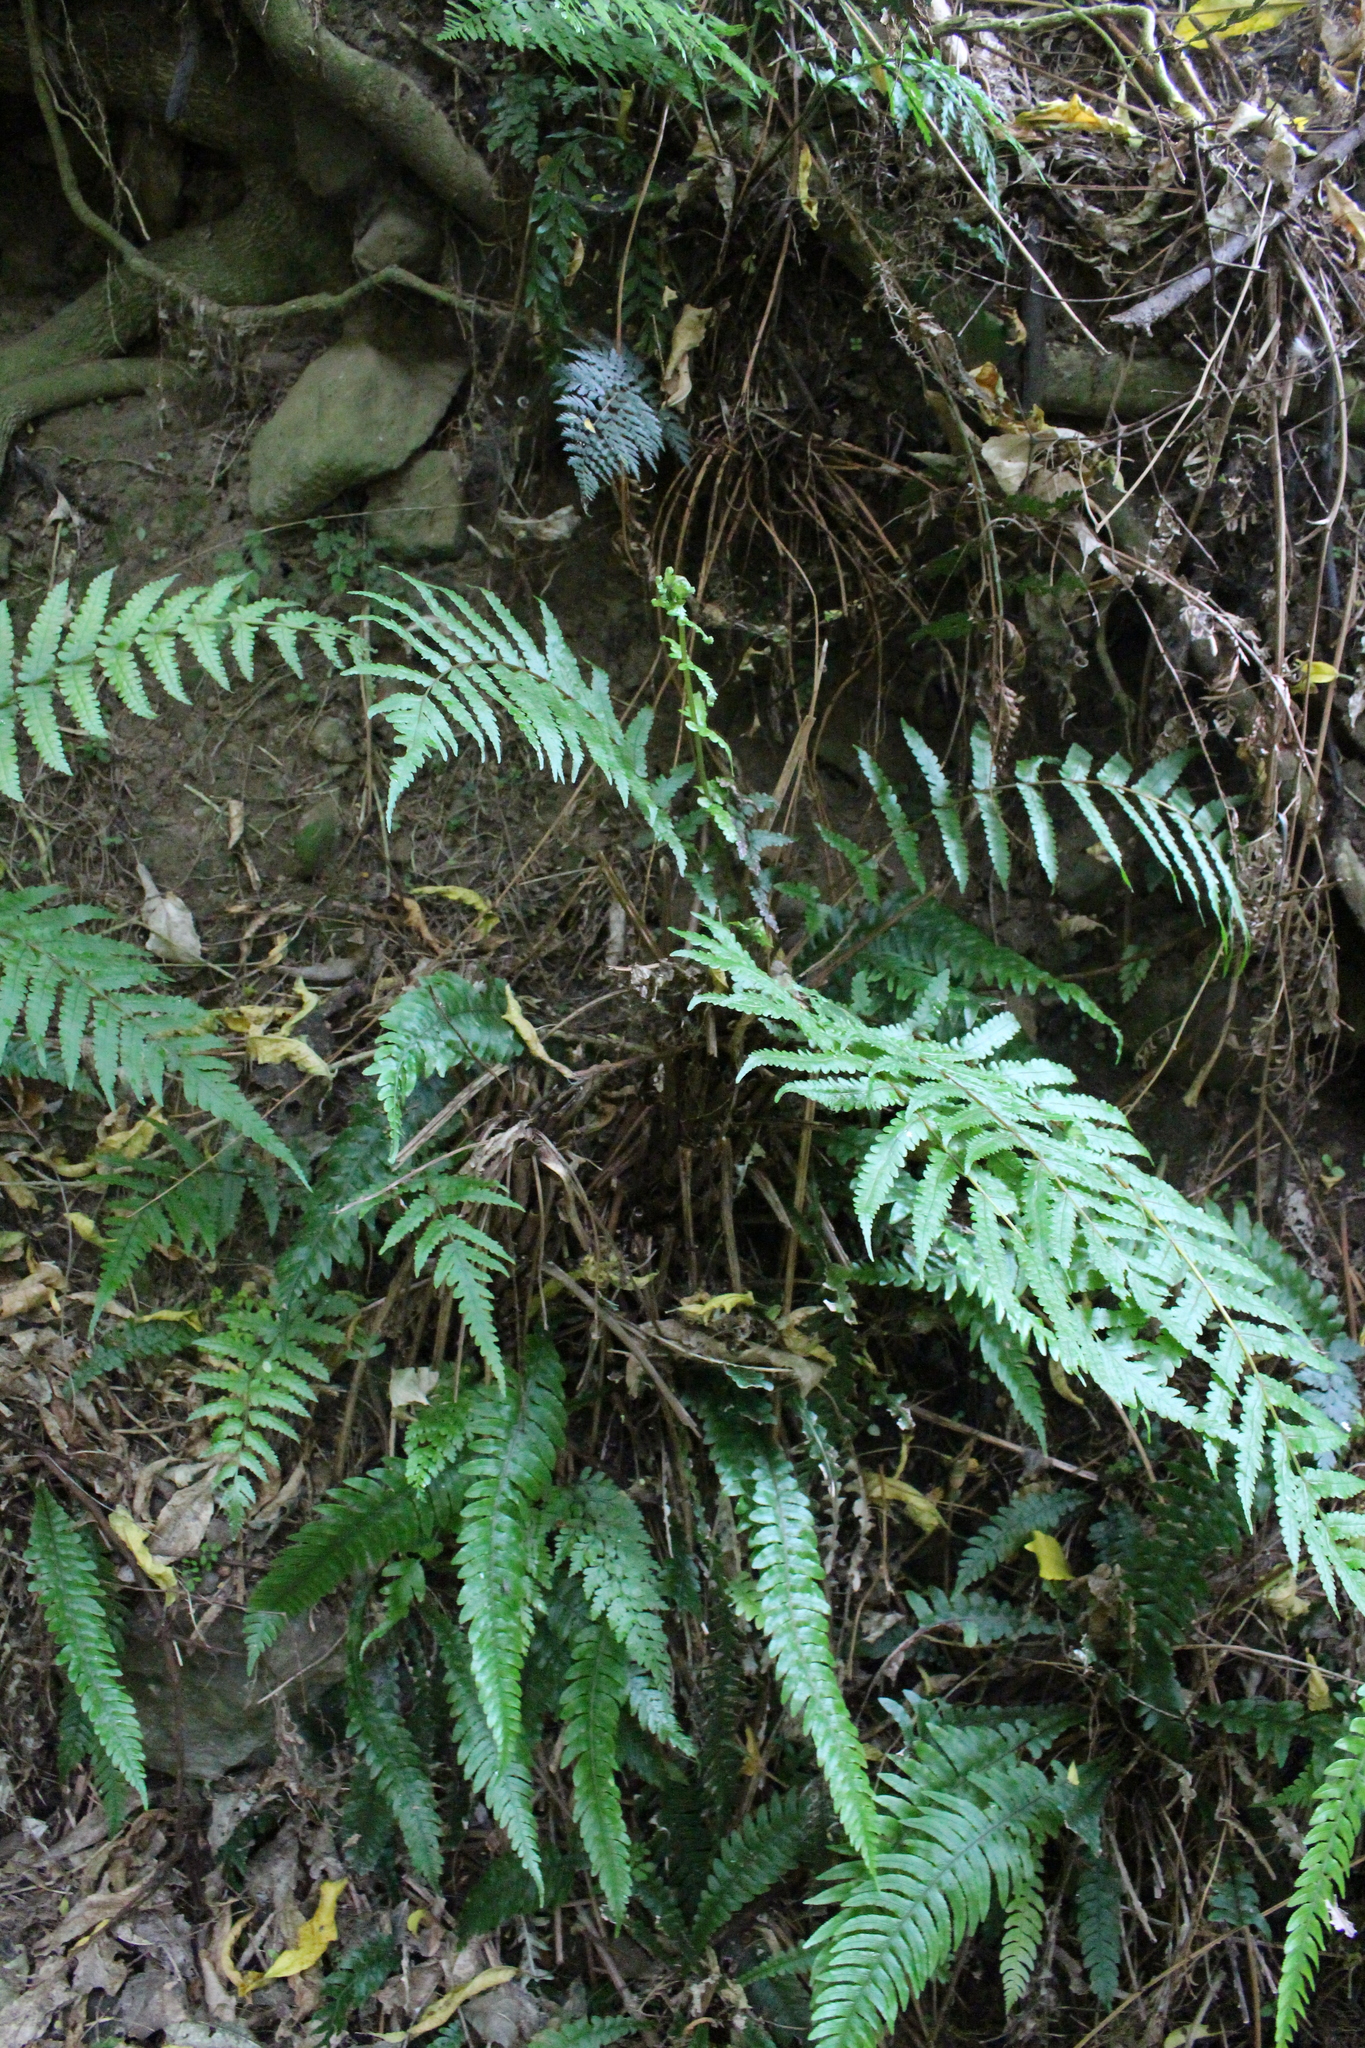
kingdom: Plantae
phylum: Tracheophyta
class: Polypodiopsida
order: Polypodiales
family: Thelypteridaceae
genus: Pakau
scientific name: Pakau pennigera
